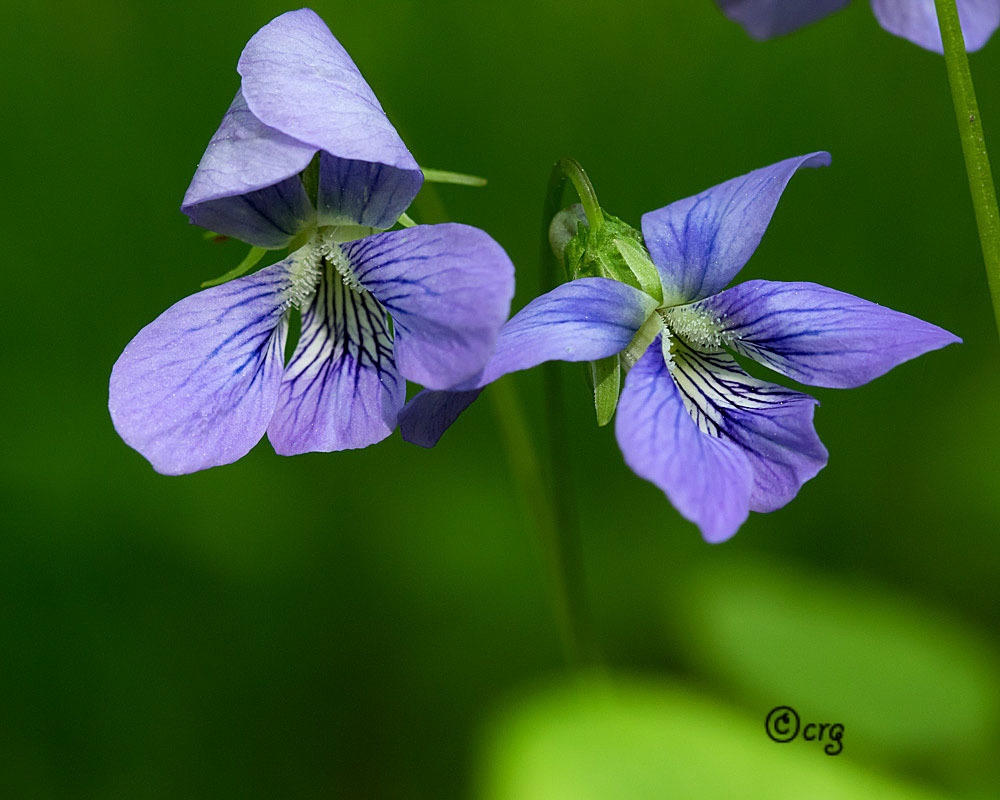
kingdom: Plantae
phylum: Tracheophyta
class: Magnoliopsida
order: Malpighiales
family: Violaceae
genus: Viola
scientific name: Viola cucullata
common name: Marsh blue violet
